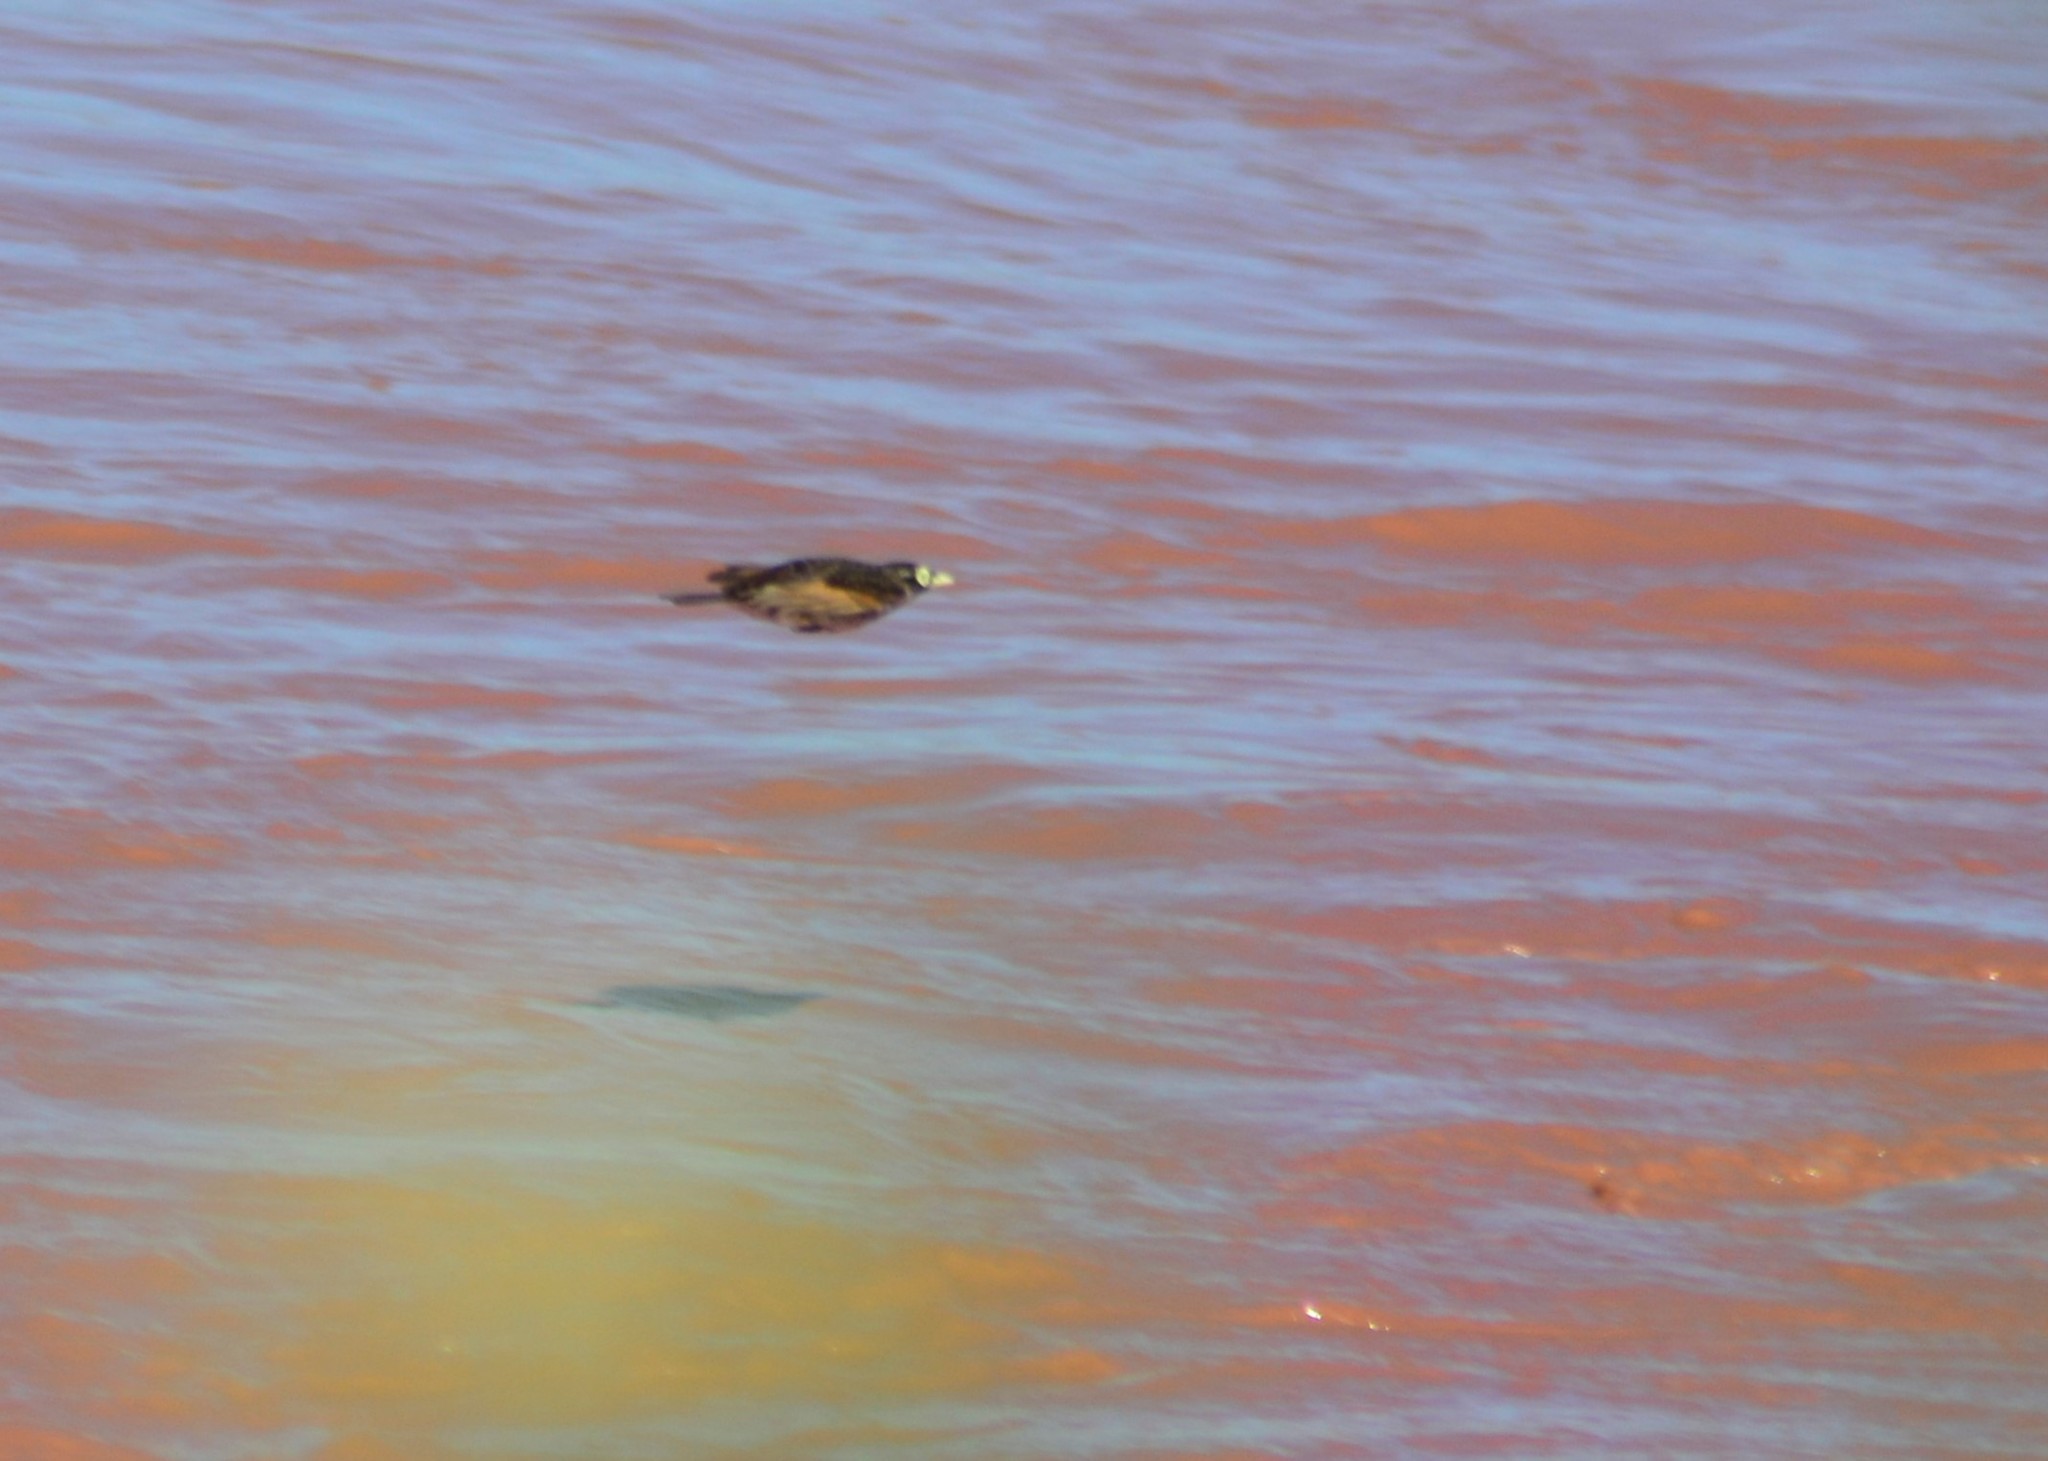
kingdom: Animalia
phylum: Chordata
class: Aves
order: Passeriformes
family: Tyrannidae
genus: Hymenops
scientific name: Hymenops perspicillatus
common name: Spectacled tyrant
